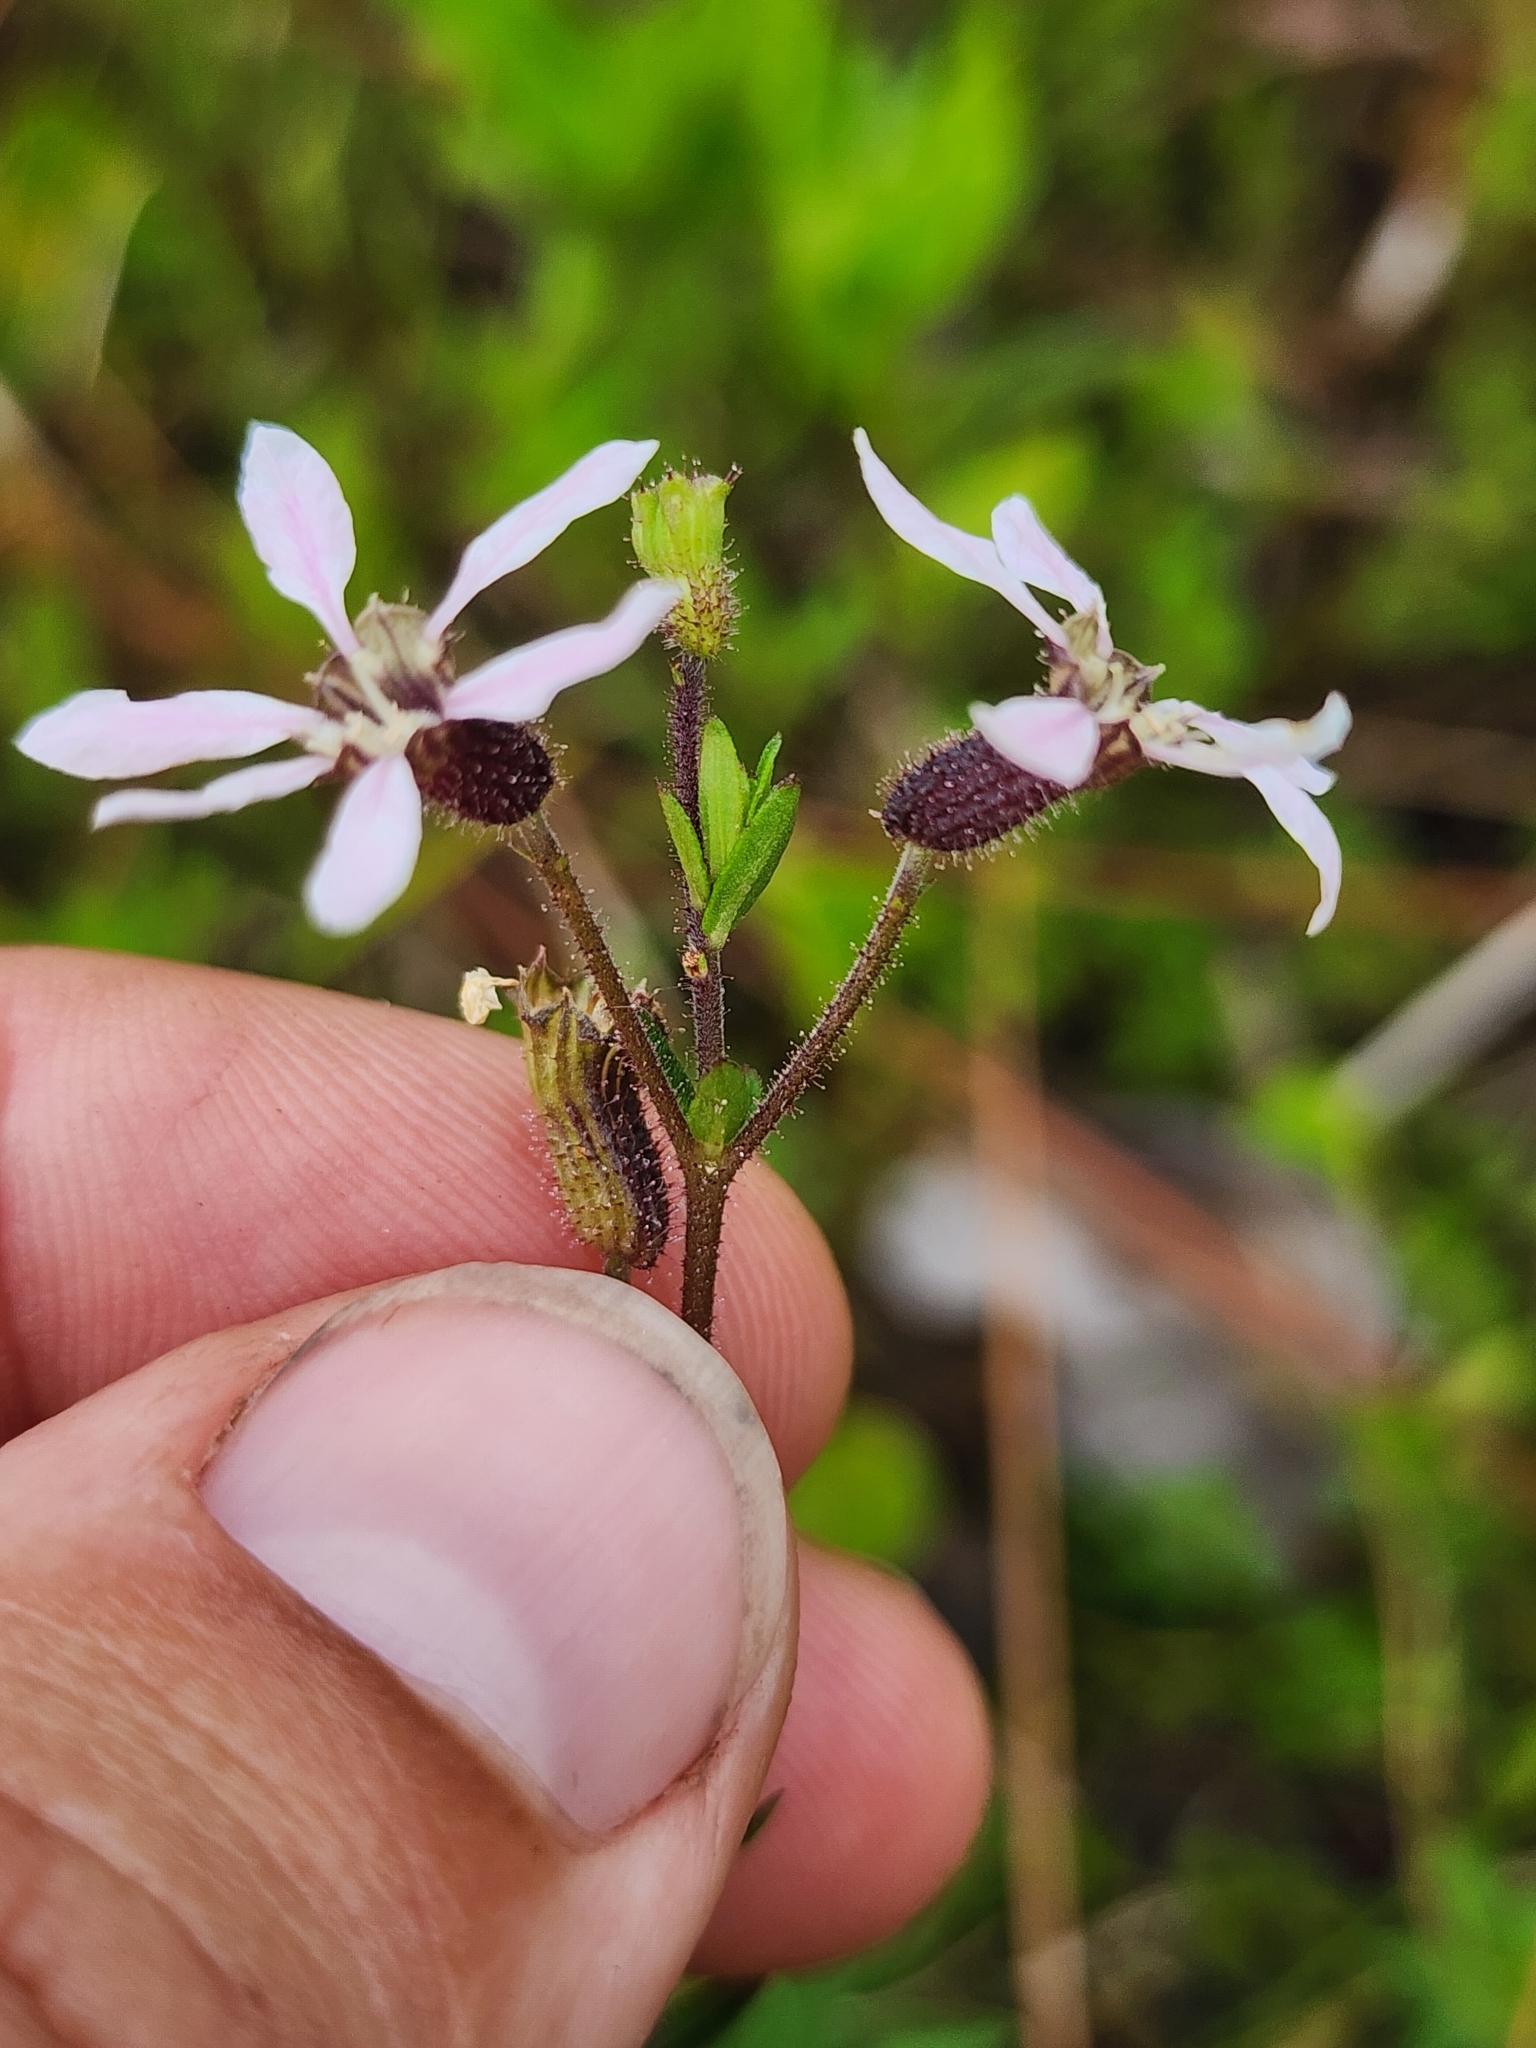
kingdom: Plantae
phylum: Tracheophyta
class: Magnoliopsida
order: Myrtales
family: Lythraceae
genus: Cuphea
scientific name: Cuphea aspera
